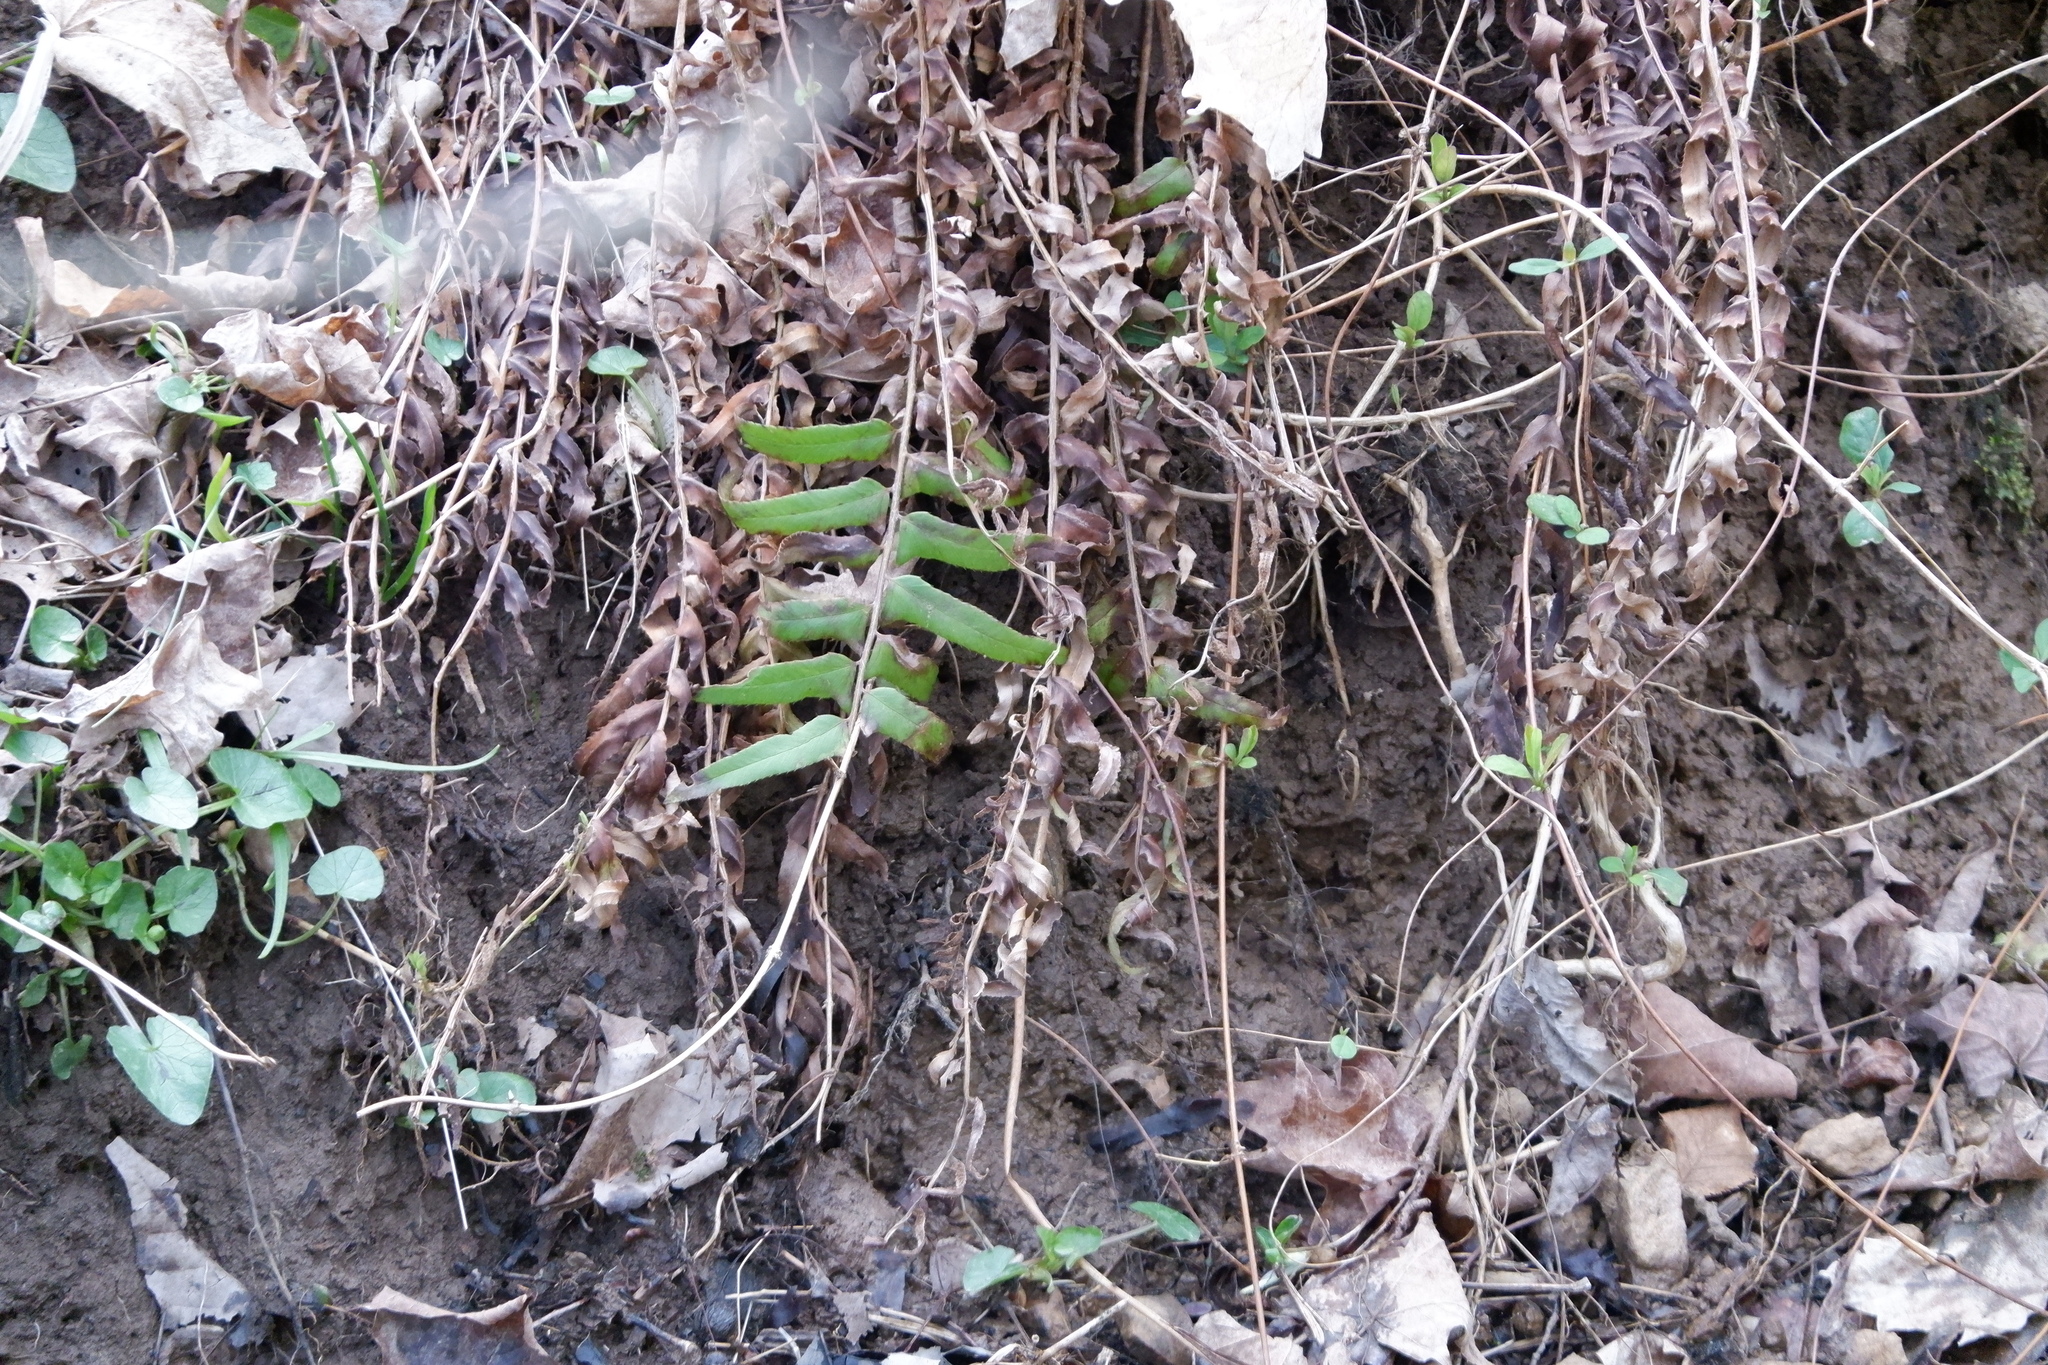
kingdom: Plantae
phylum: Tracheophyta
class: Polypodiopsida
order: Polypodiales
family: Dryopteridaceae
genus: Polystichum
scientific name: Polystichum acrostichoides
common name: Christmas fern
